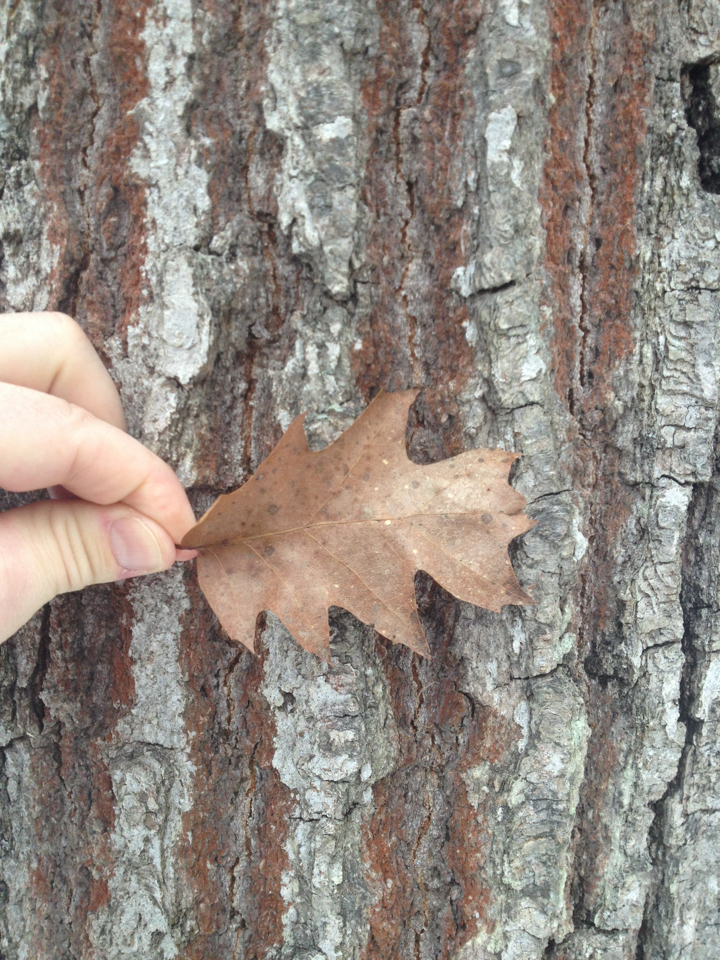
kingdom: Plantae
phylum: Tracheophyta
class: Magnoliopsida
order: Fagales
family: Fagaceae
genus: Quercus
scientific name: Quercus rubra
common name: Red oak
